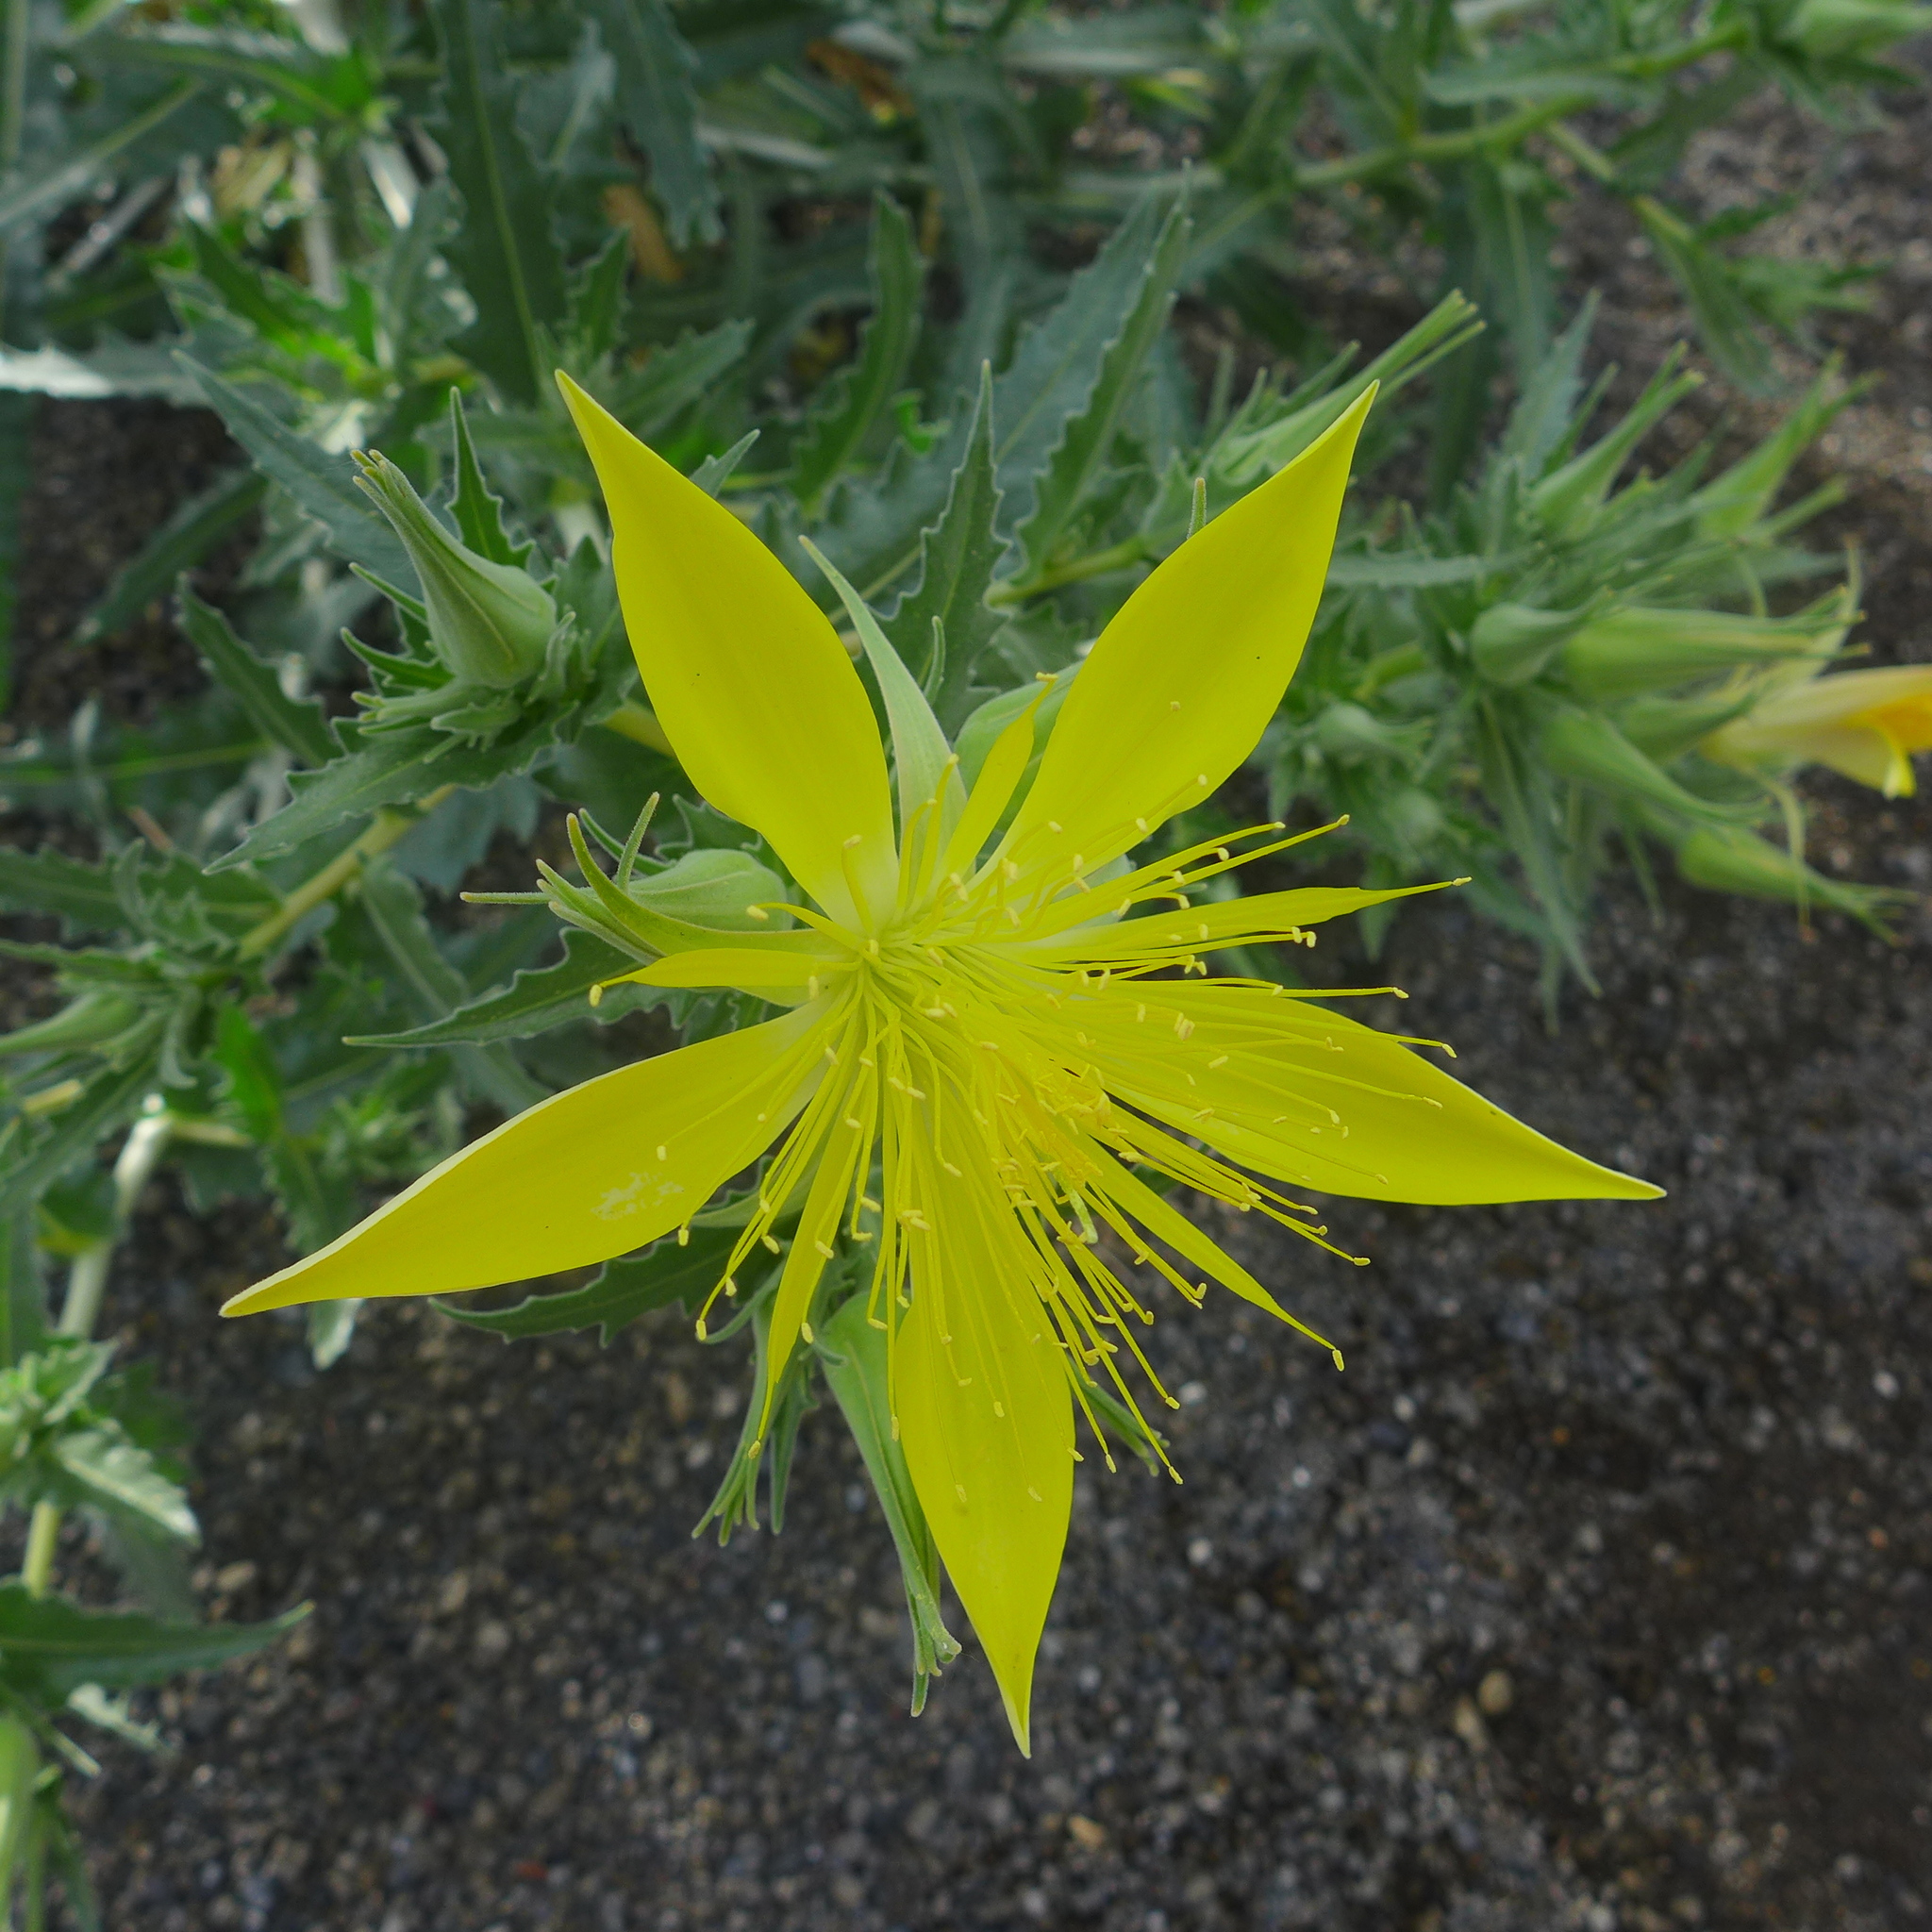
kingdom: Plantae
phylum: Tracheophyta
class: Magnoliopsida
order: Cornales
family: Loasaceae
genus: Mentzelia
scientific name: Mentzelia laevicaulis
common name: Smooth-stem blazingstar
